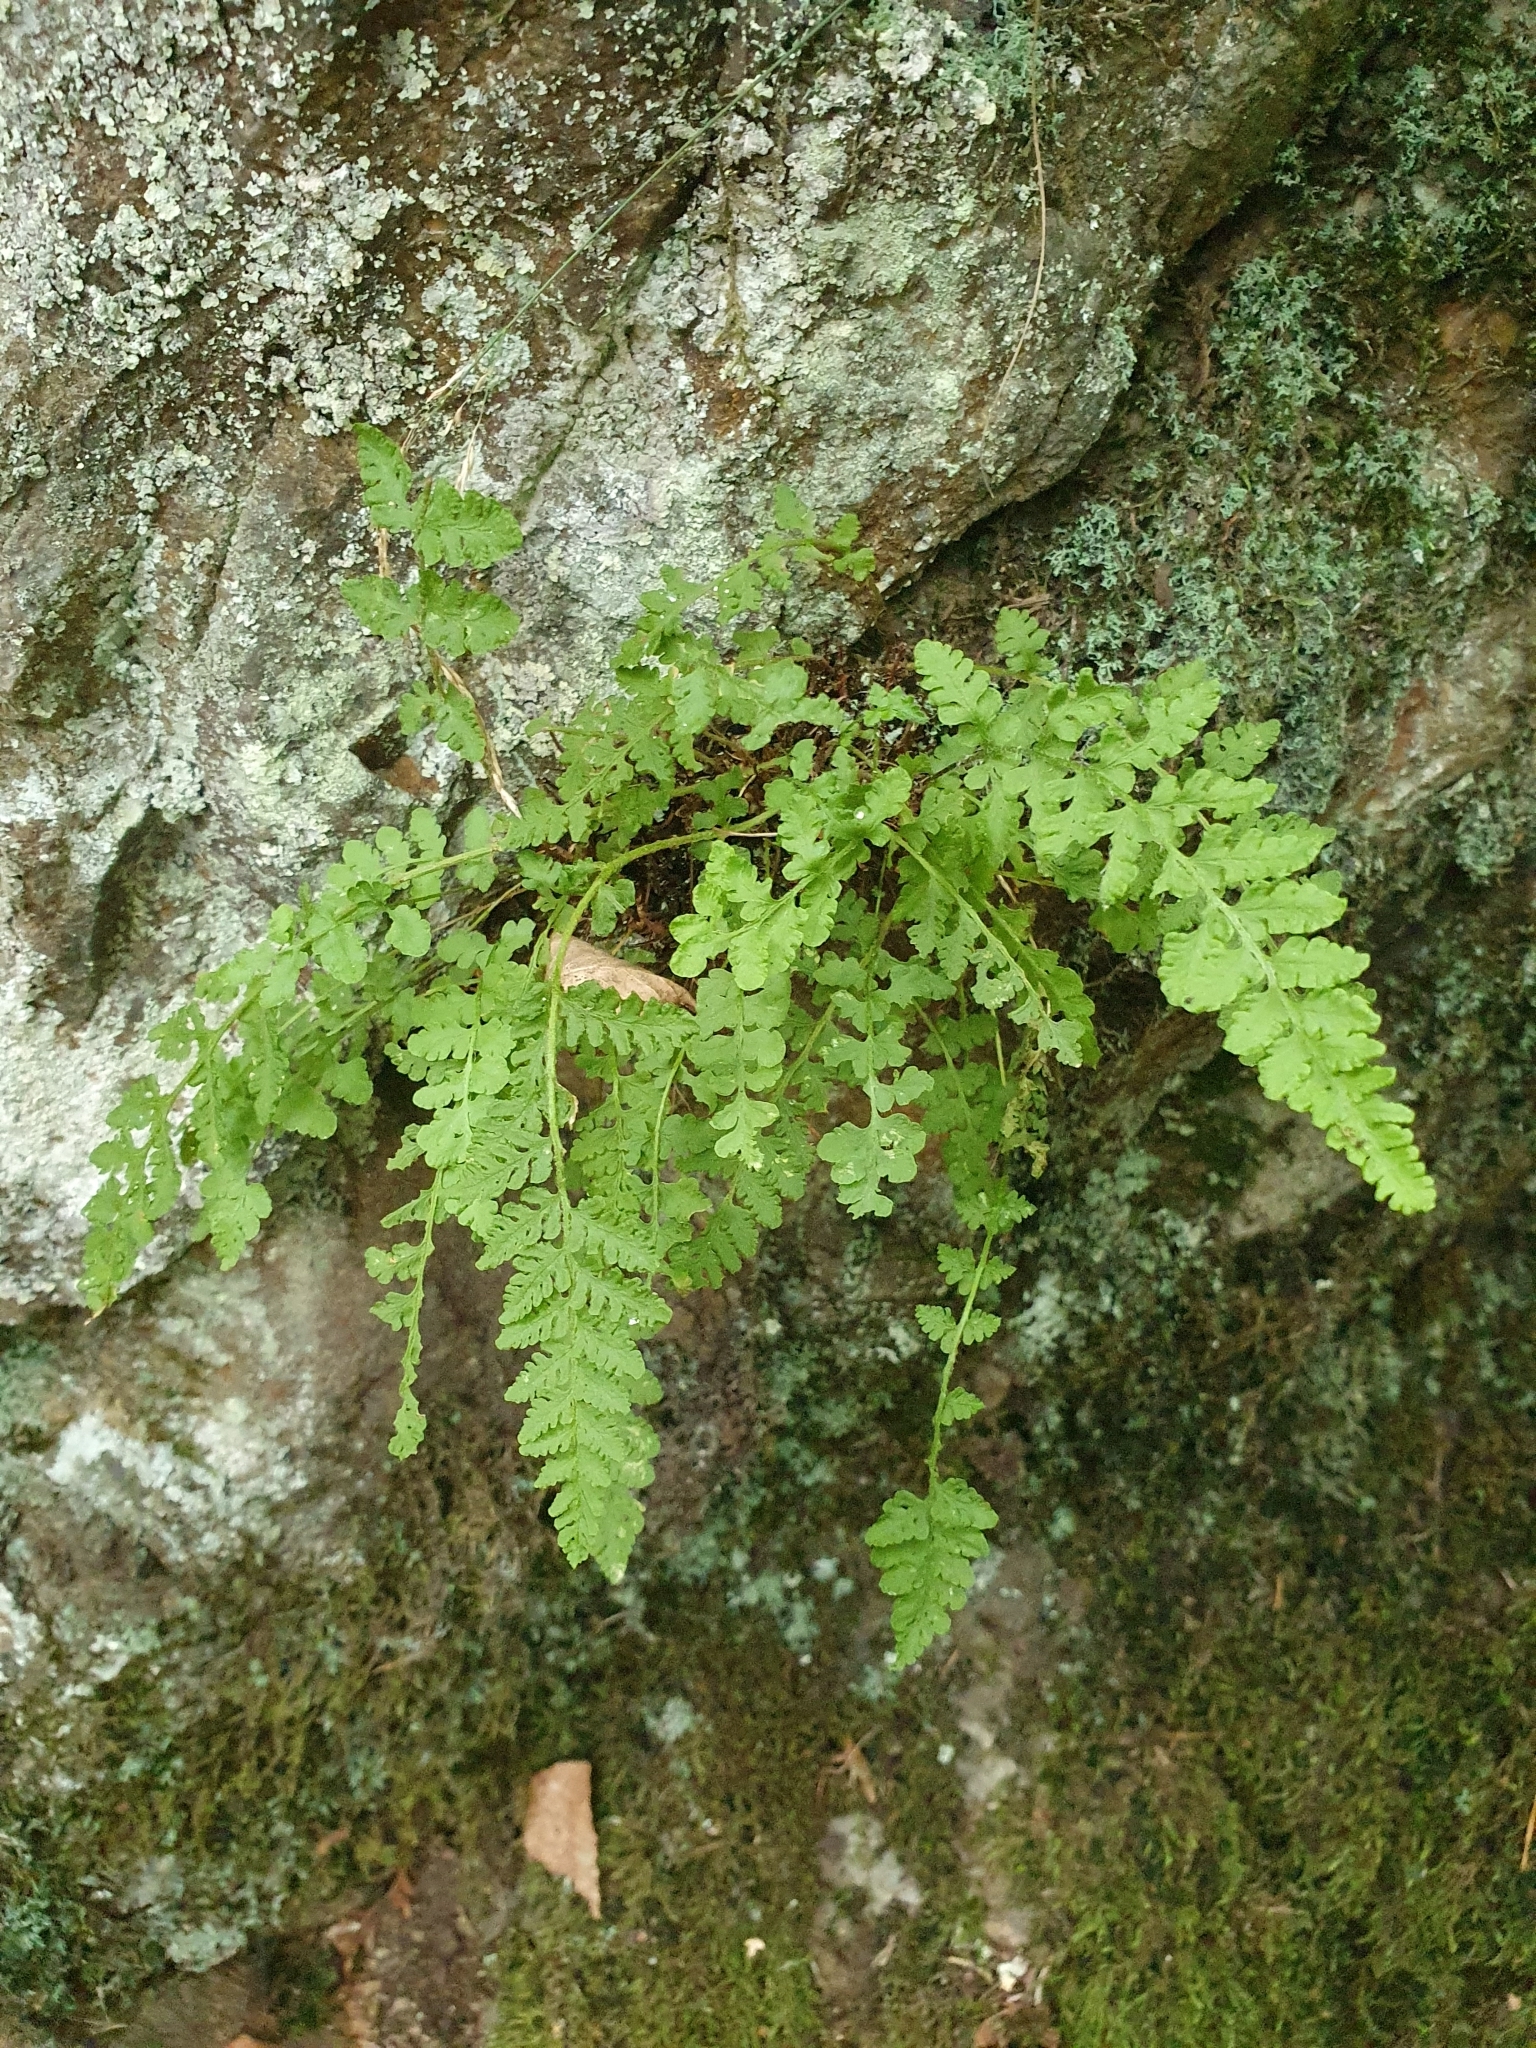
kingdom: Plantae
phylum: Tracheophyta
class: Polypodiopsida
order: Polypodiales
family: Woodsiaceae
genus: Woodsia
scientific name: Woodsia ilvensis
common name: Fragrant woodsia
